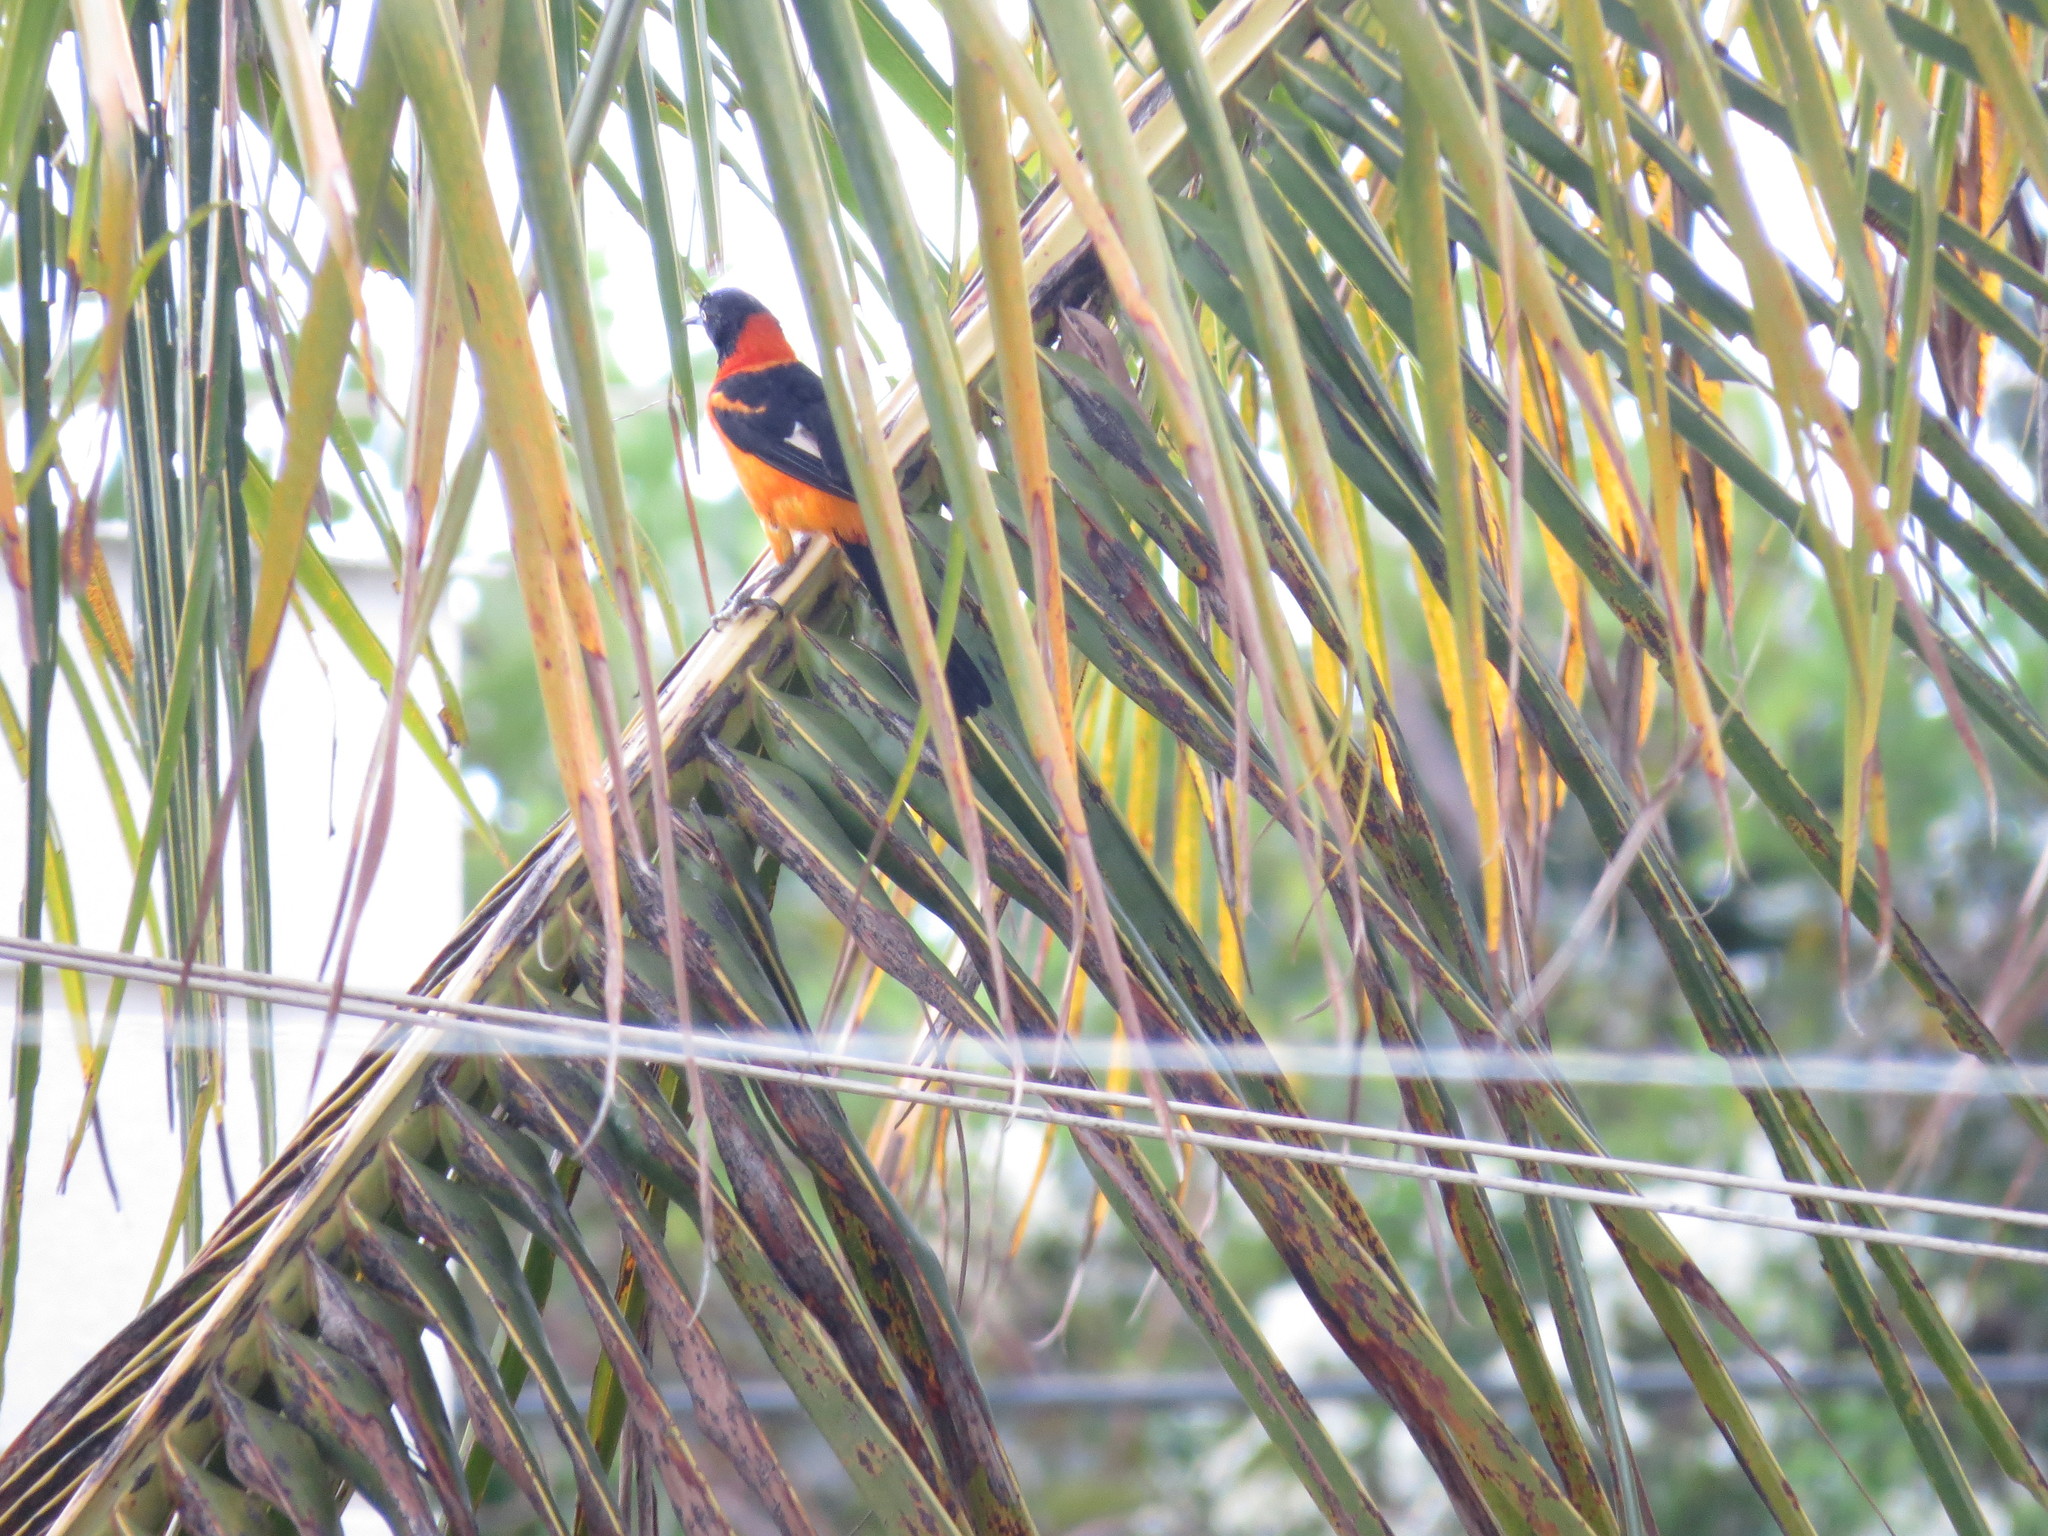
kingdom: Animalia
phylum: Chordata
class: Aves
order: Passeriformes
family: Icteridae
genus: Icterus
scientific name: Icterus icterus
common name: Venezuelan troupial
